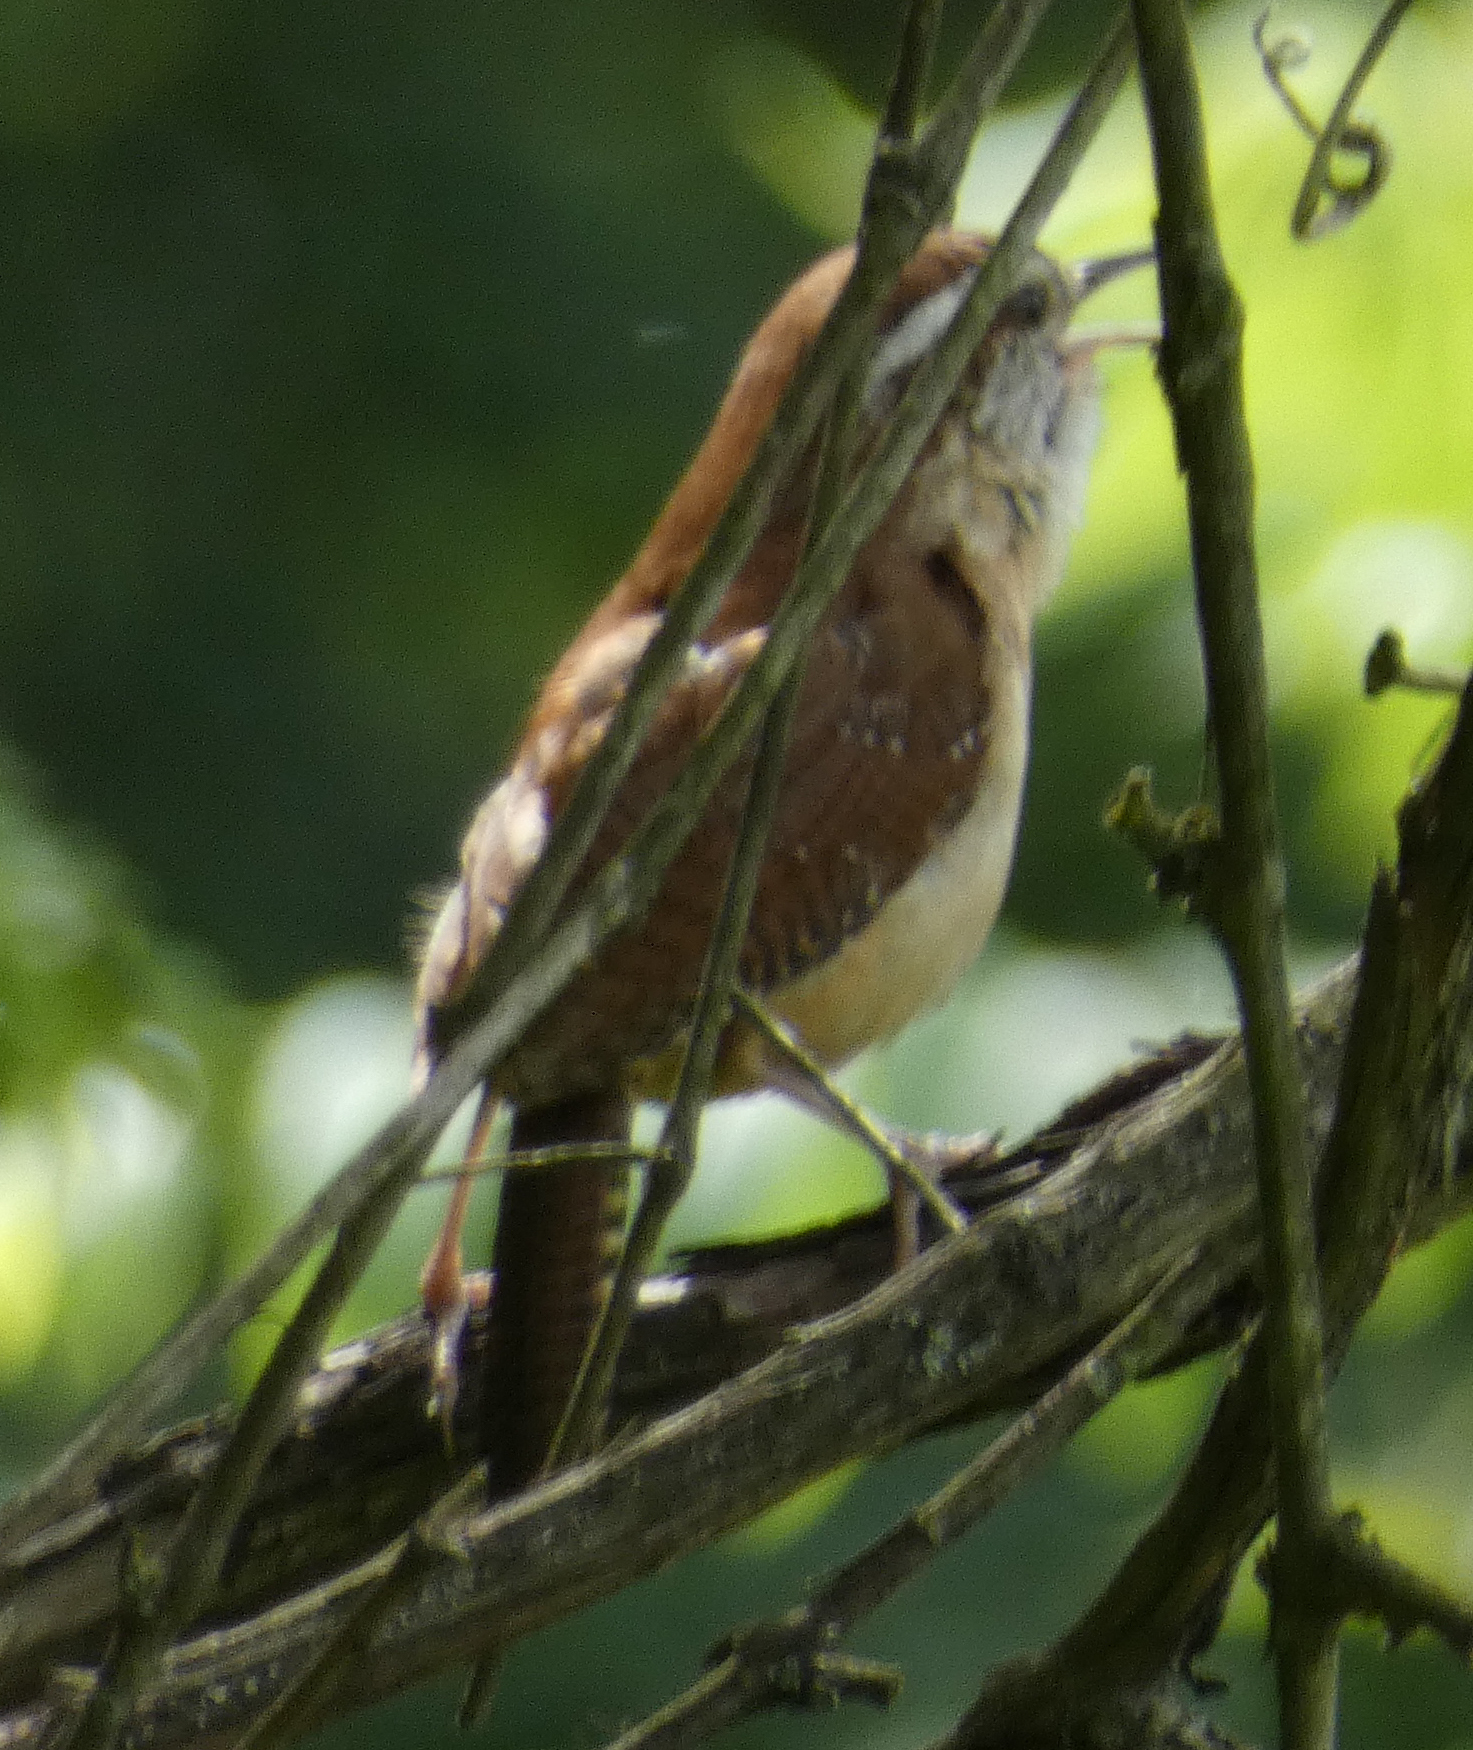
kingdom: Animalia
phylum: Chordata
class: Aves
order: Passeriformes
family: Troglodytidae
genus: Thryothorus
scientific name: Thryothorus ludovicianus
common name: Carolina wren
